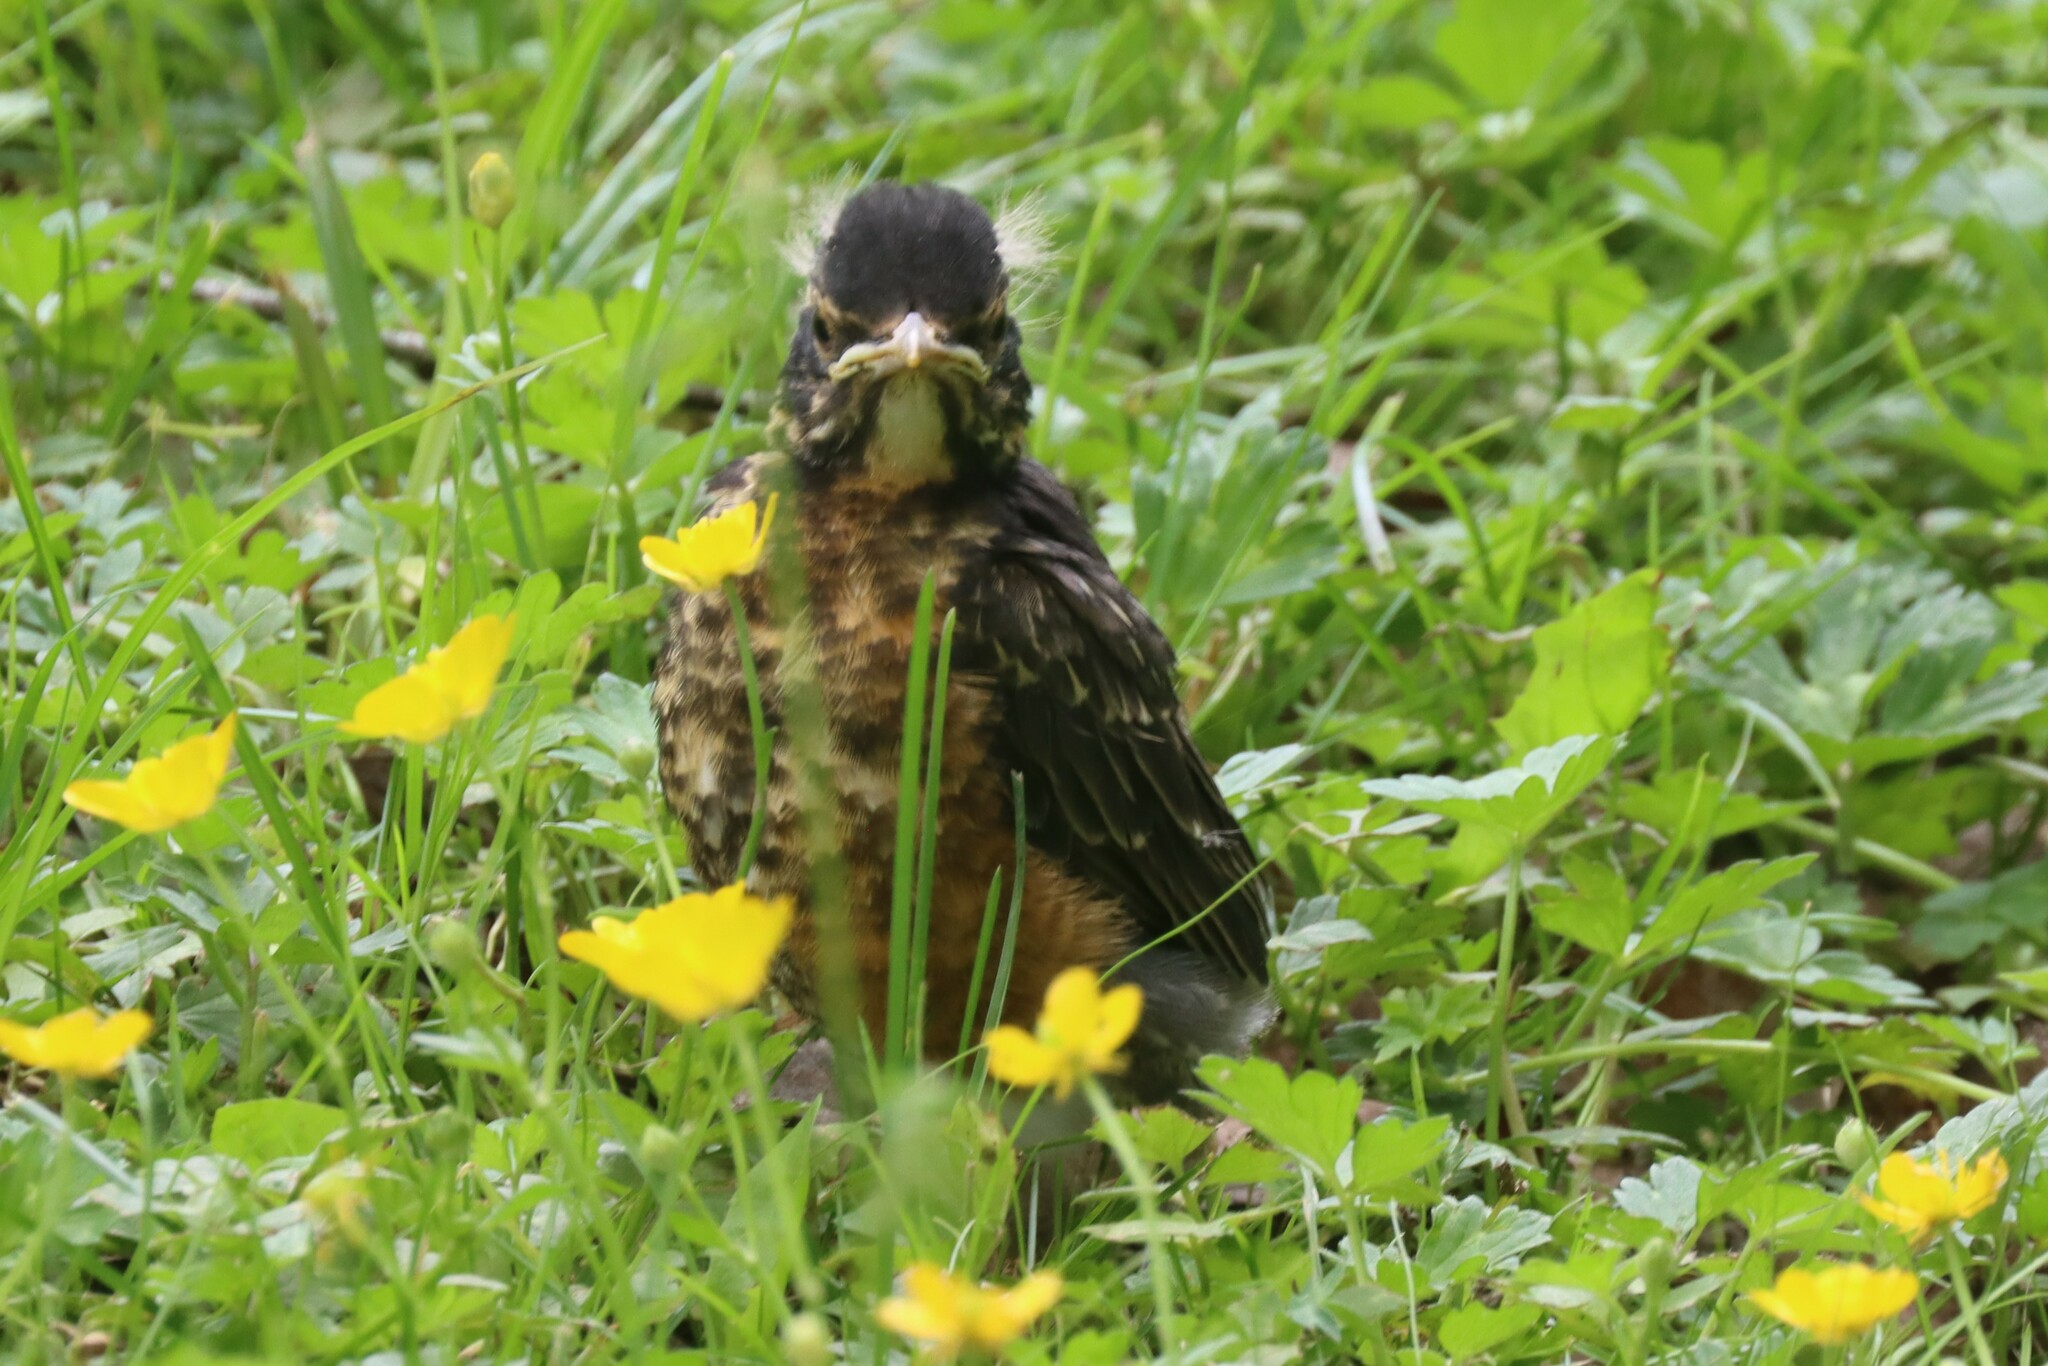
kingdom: Animalia
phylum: Chordata
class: Aves
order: Passeriformes
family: Turdidae
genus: Turdus
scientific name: Turdus migratorius
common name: American robin
